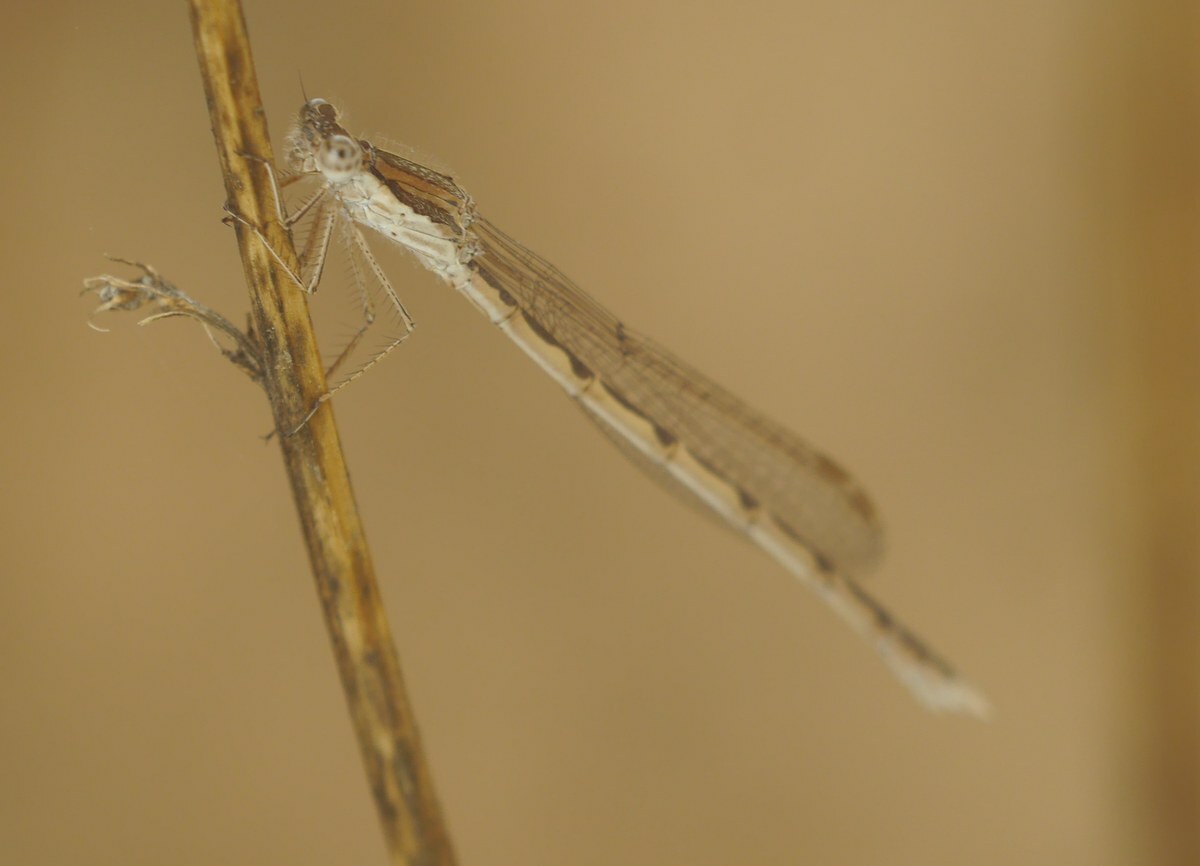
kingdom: Animalia
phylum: Arthropoda
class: Insecta
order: Odonata
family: Lestidae
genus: Sympecma
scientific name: Sympecma fusca
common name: Common winter damsel
